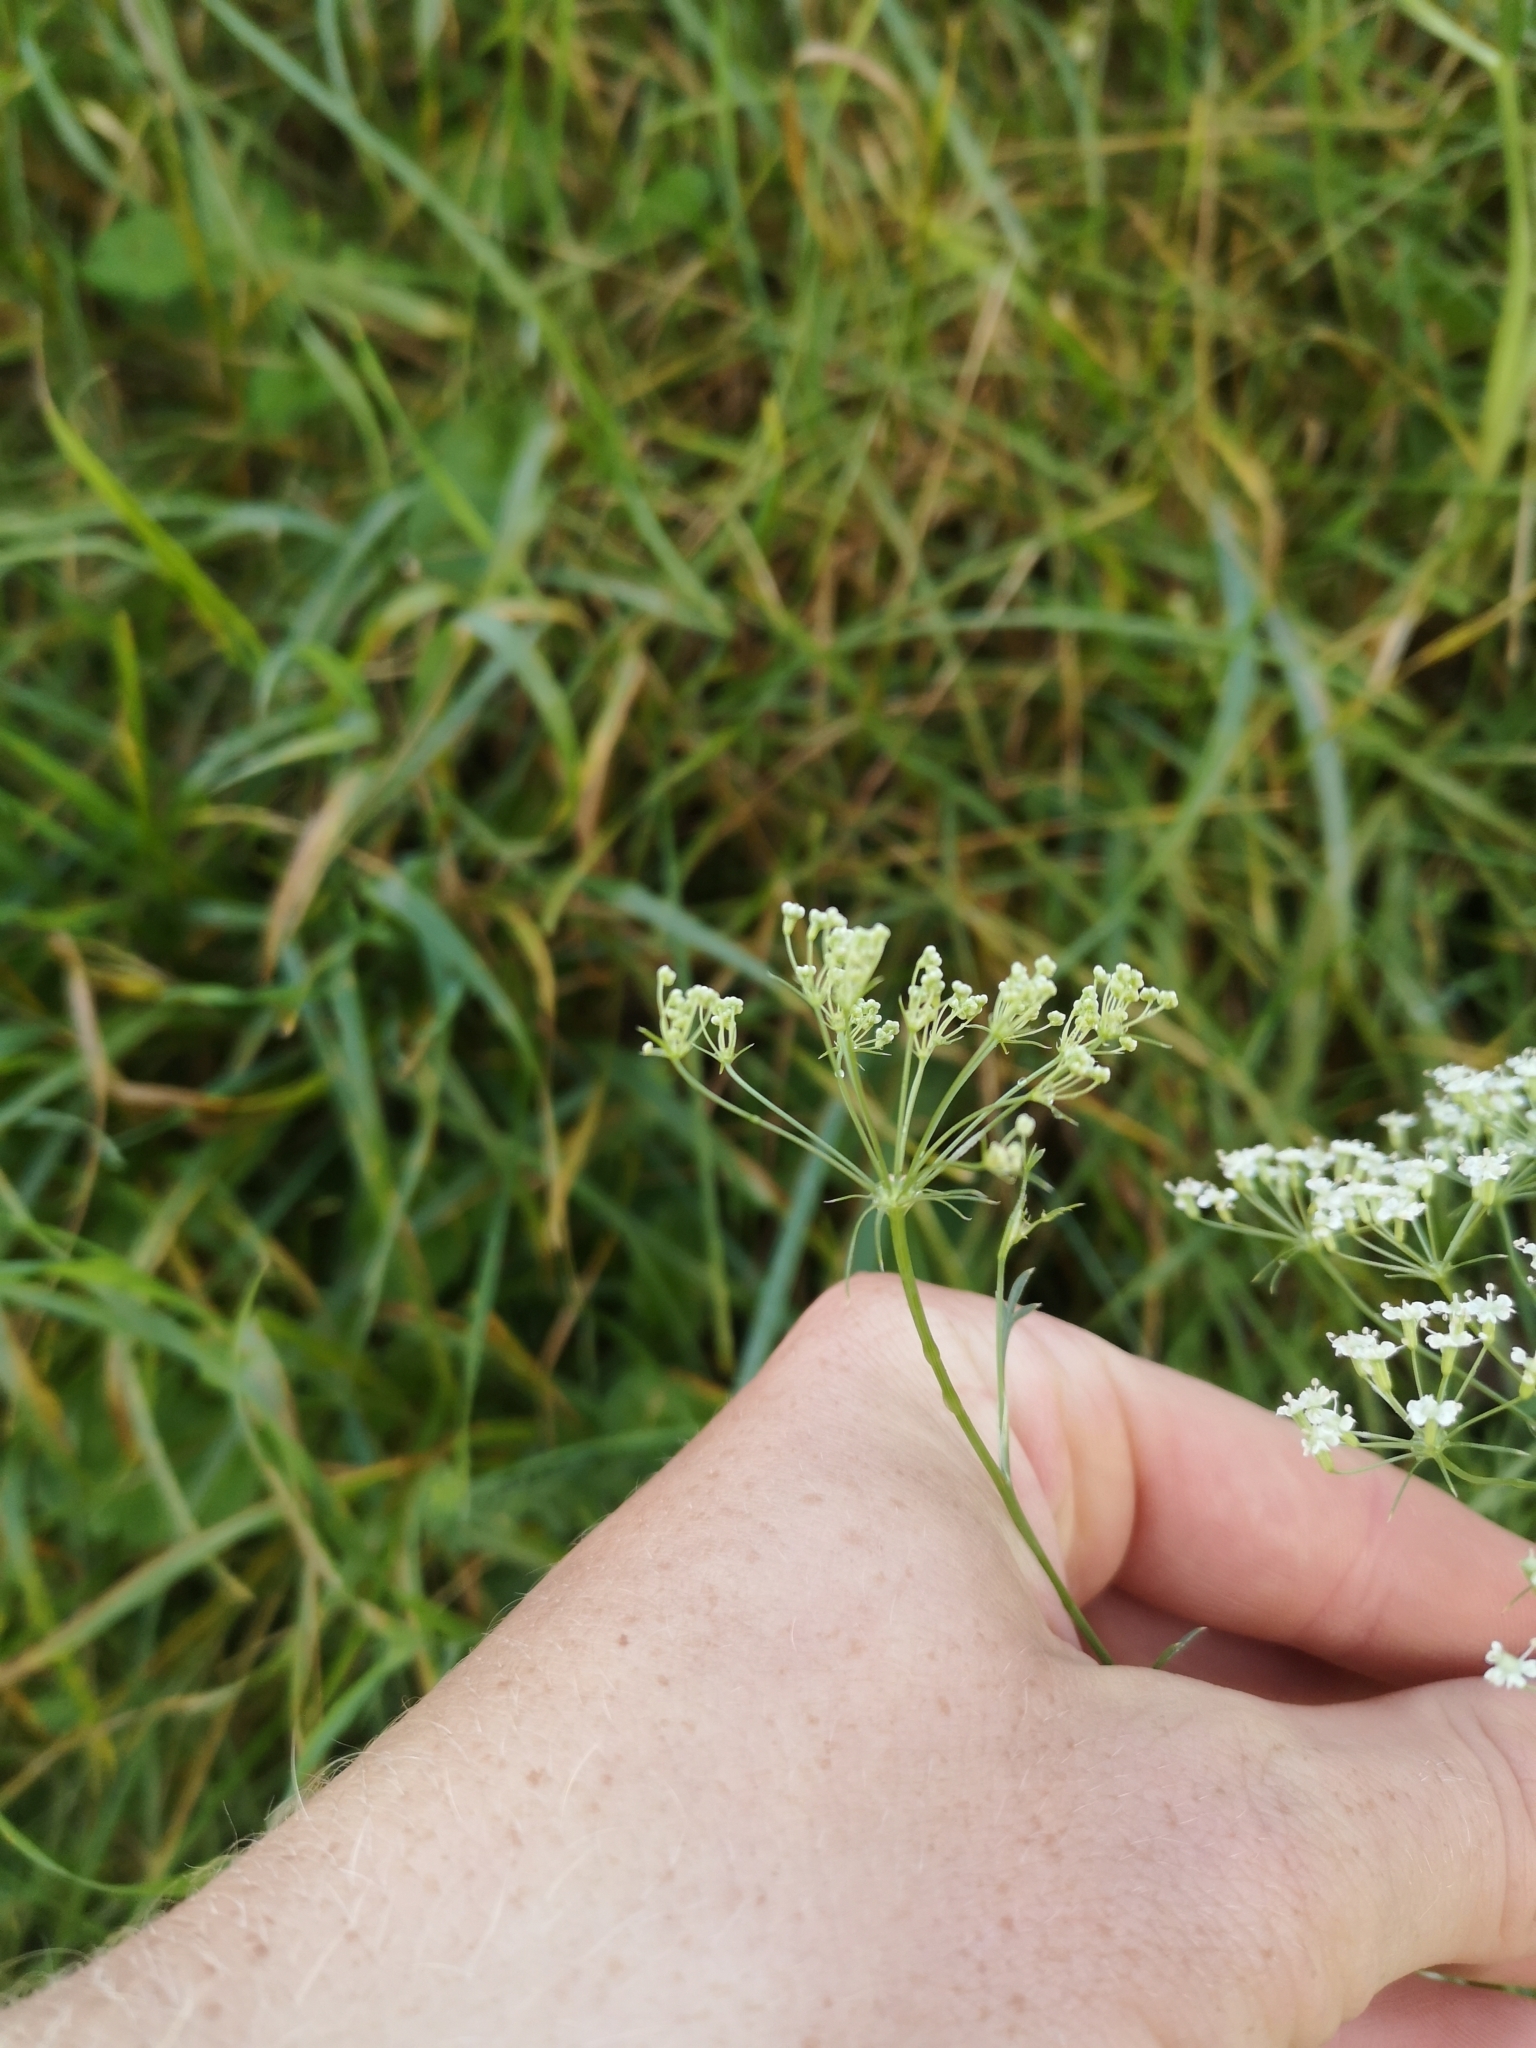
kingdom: Plantae
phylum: Tracheophyta
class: Magnoliopsida
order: Apiales
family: Apiaceae
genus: Falcaria
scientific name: Falcaria vulgaris
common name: Longleaf
